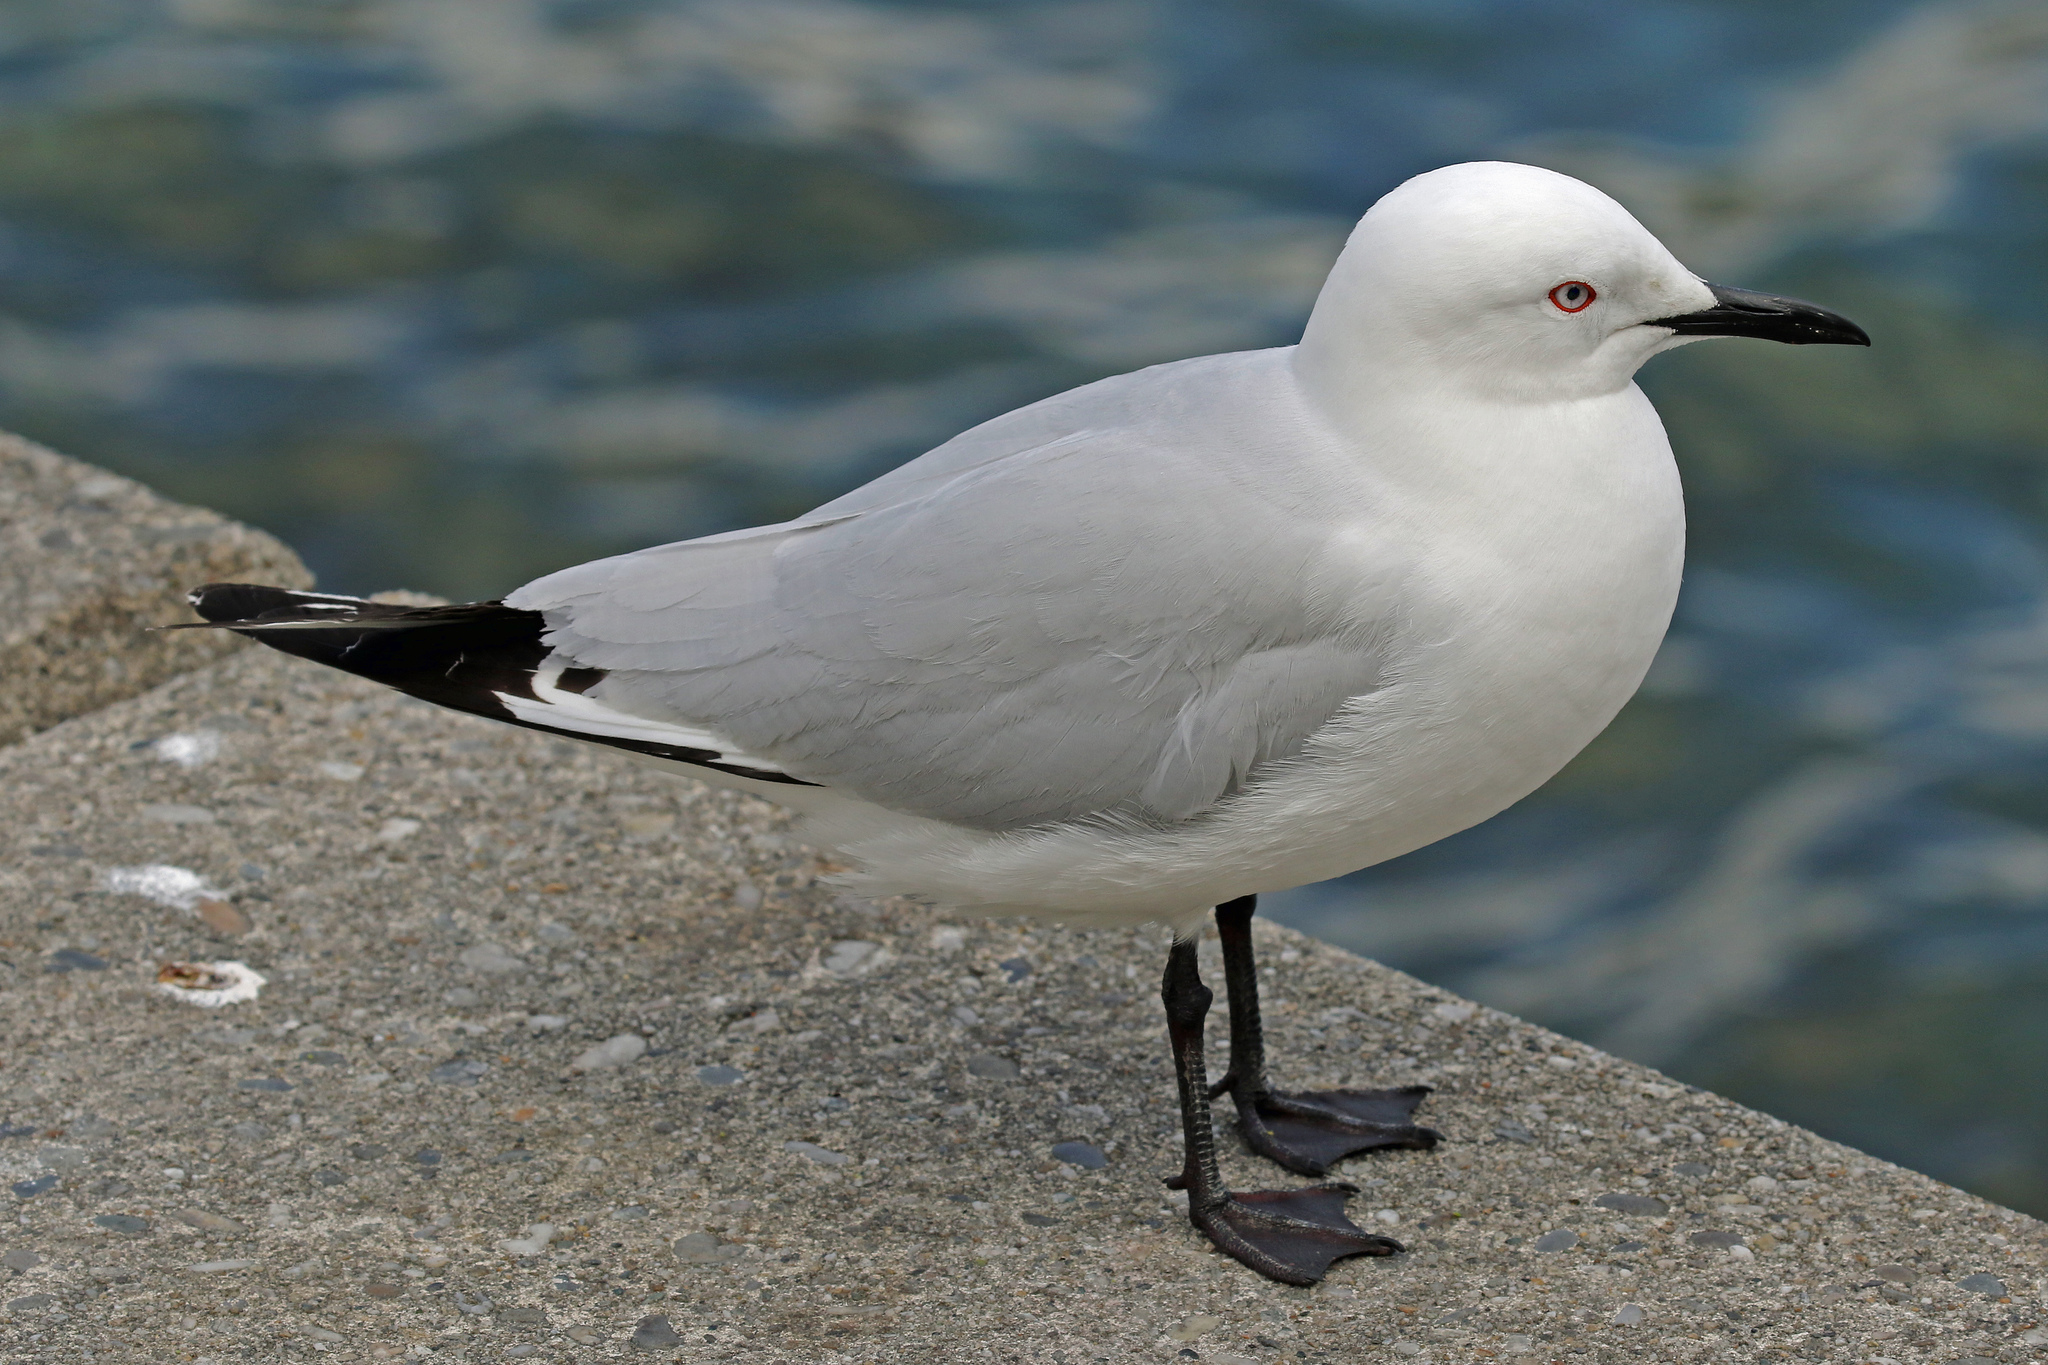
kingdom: Animalia
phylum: Chordata
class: Aves
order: Charadriiformes
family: Laridae
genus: Chroicocephalus
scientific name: Chroicocephalus bulleri
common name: Black-billed gull
